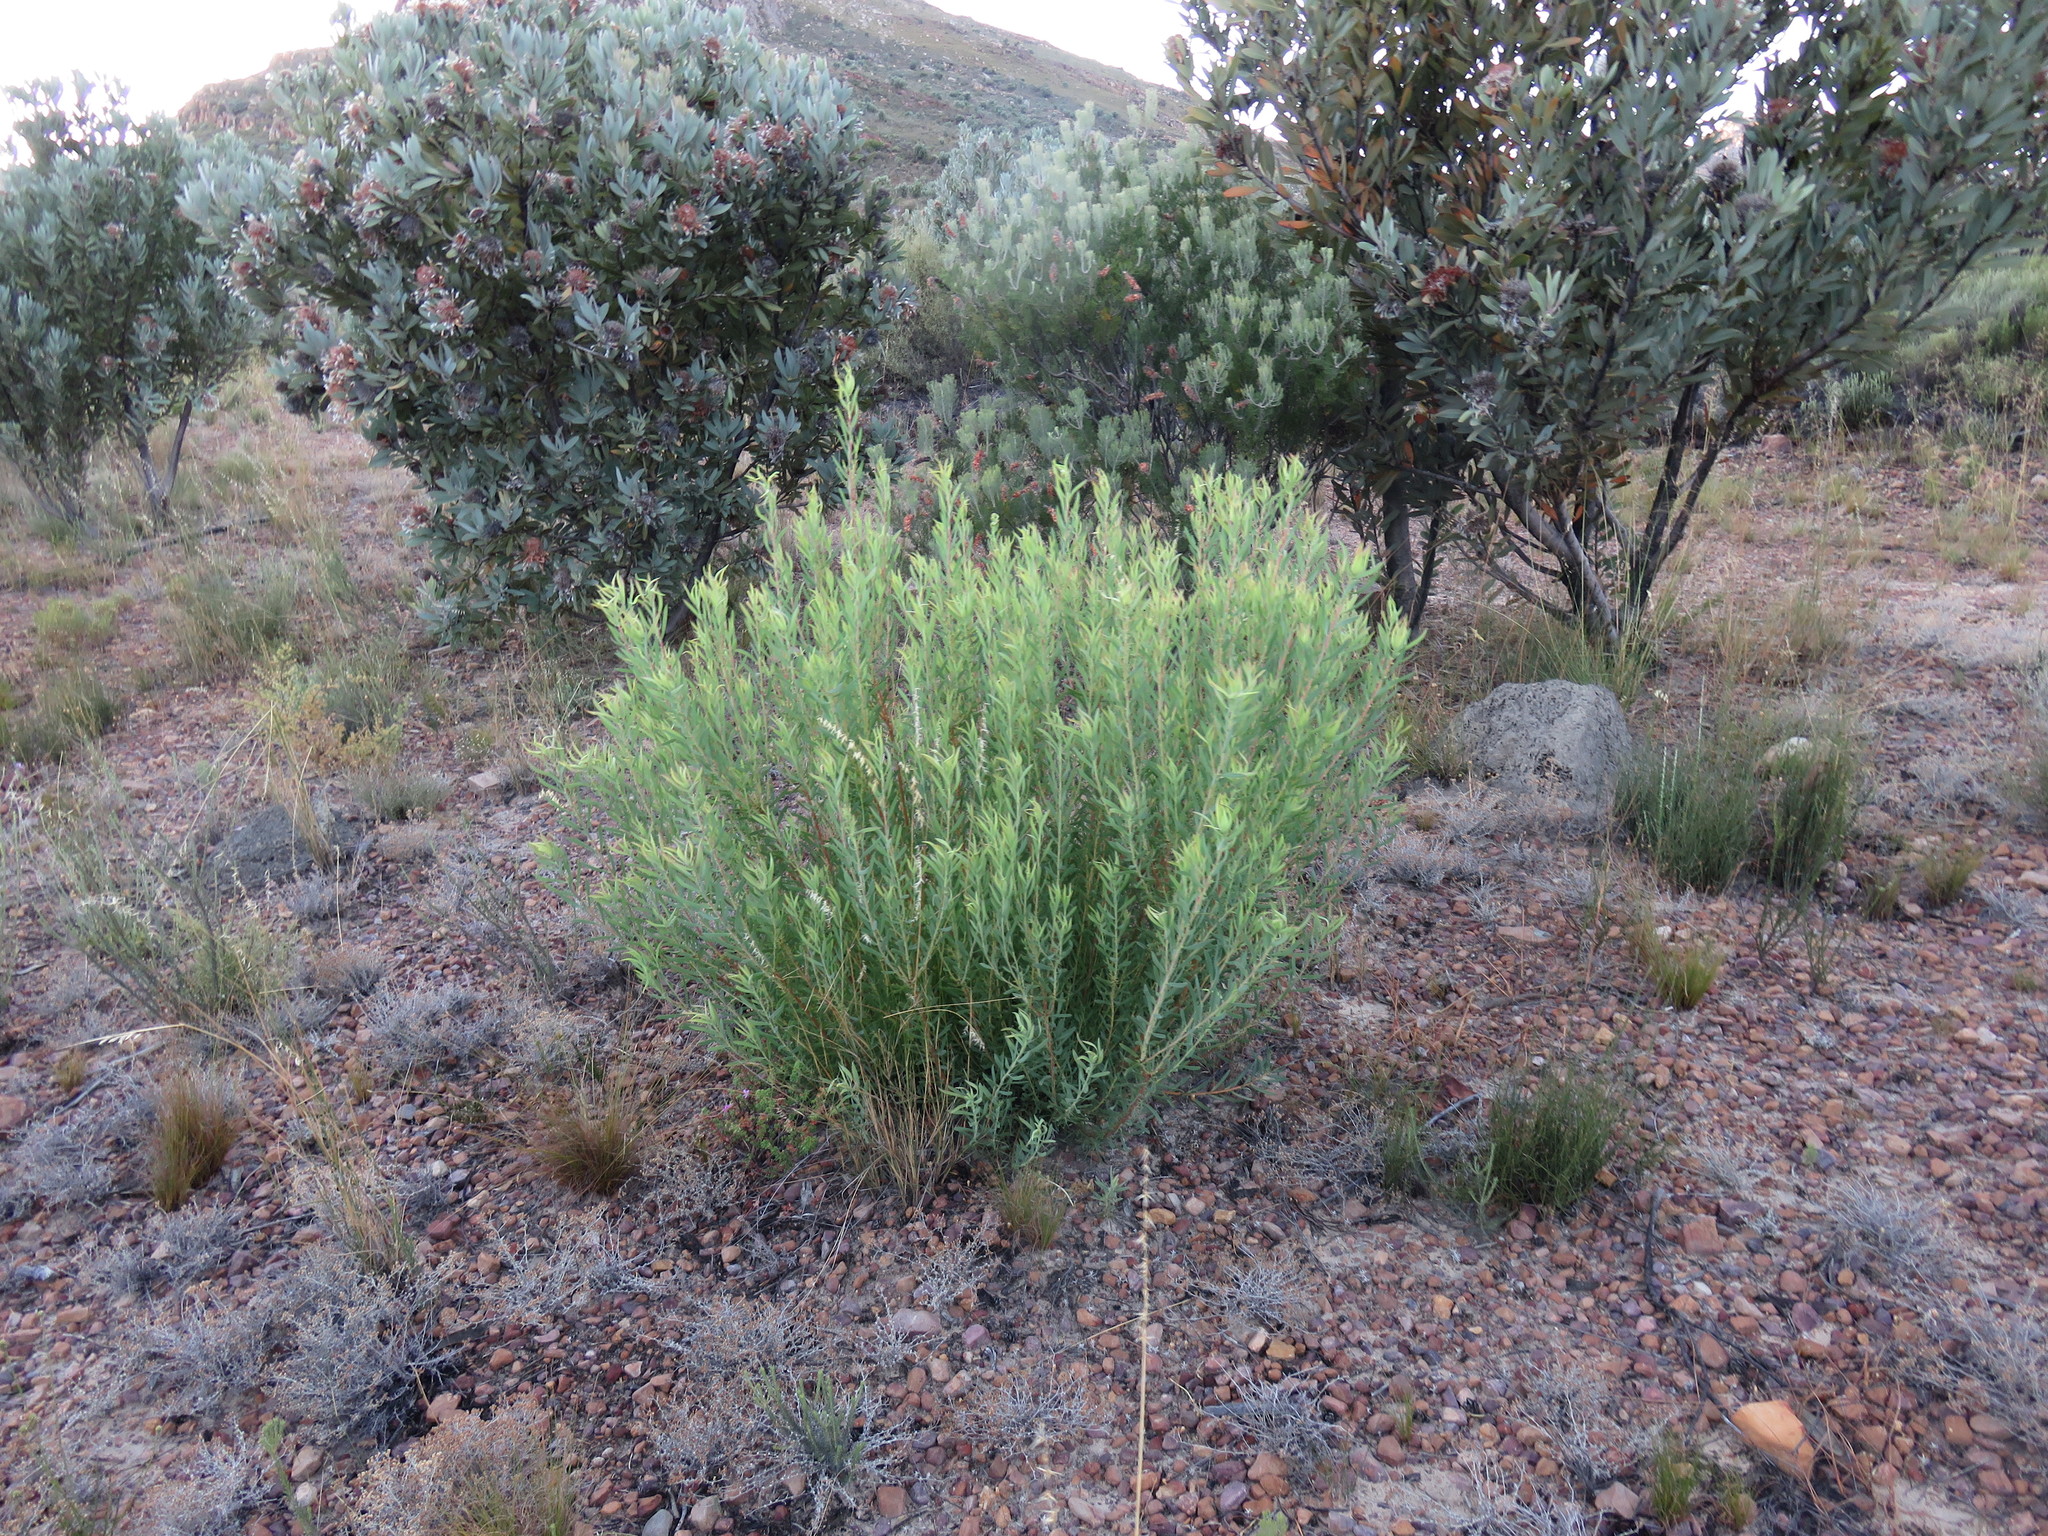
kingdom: Plantae
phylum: Tracheophyta
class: Magnoliopsida
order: Proteales
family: Proteaceae
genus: Leucadendron
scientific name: Leucadendron salignum
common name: Common sunshine conebush
